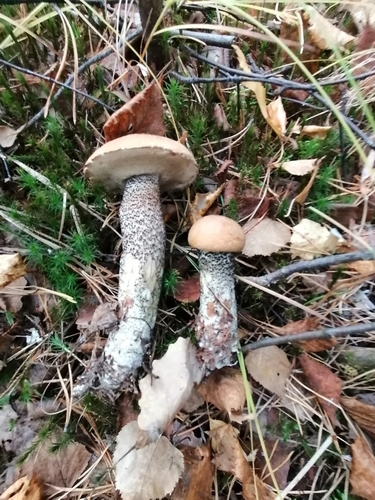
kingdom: Fungi
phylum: Basidiomycota
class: Agaricomycetes
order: Boletales
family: Boletaceae
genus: Leccinum
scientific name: Leccinum versipelle
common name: Orange birch bolete
